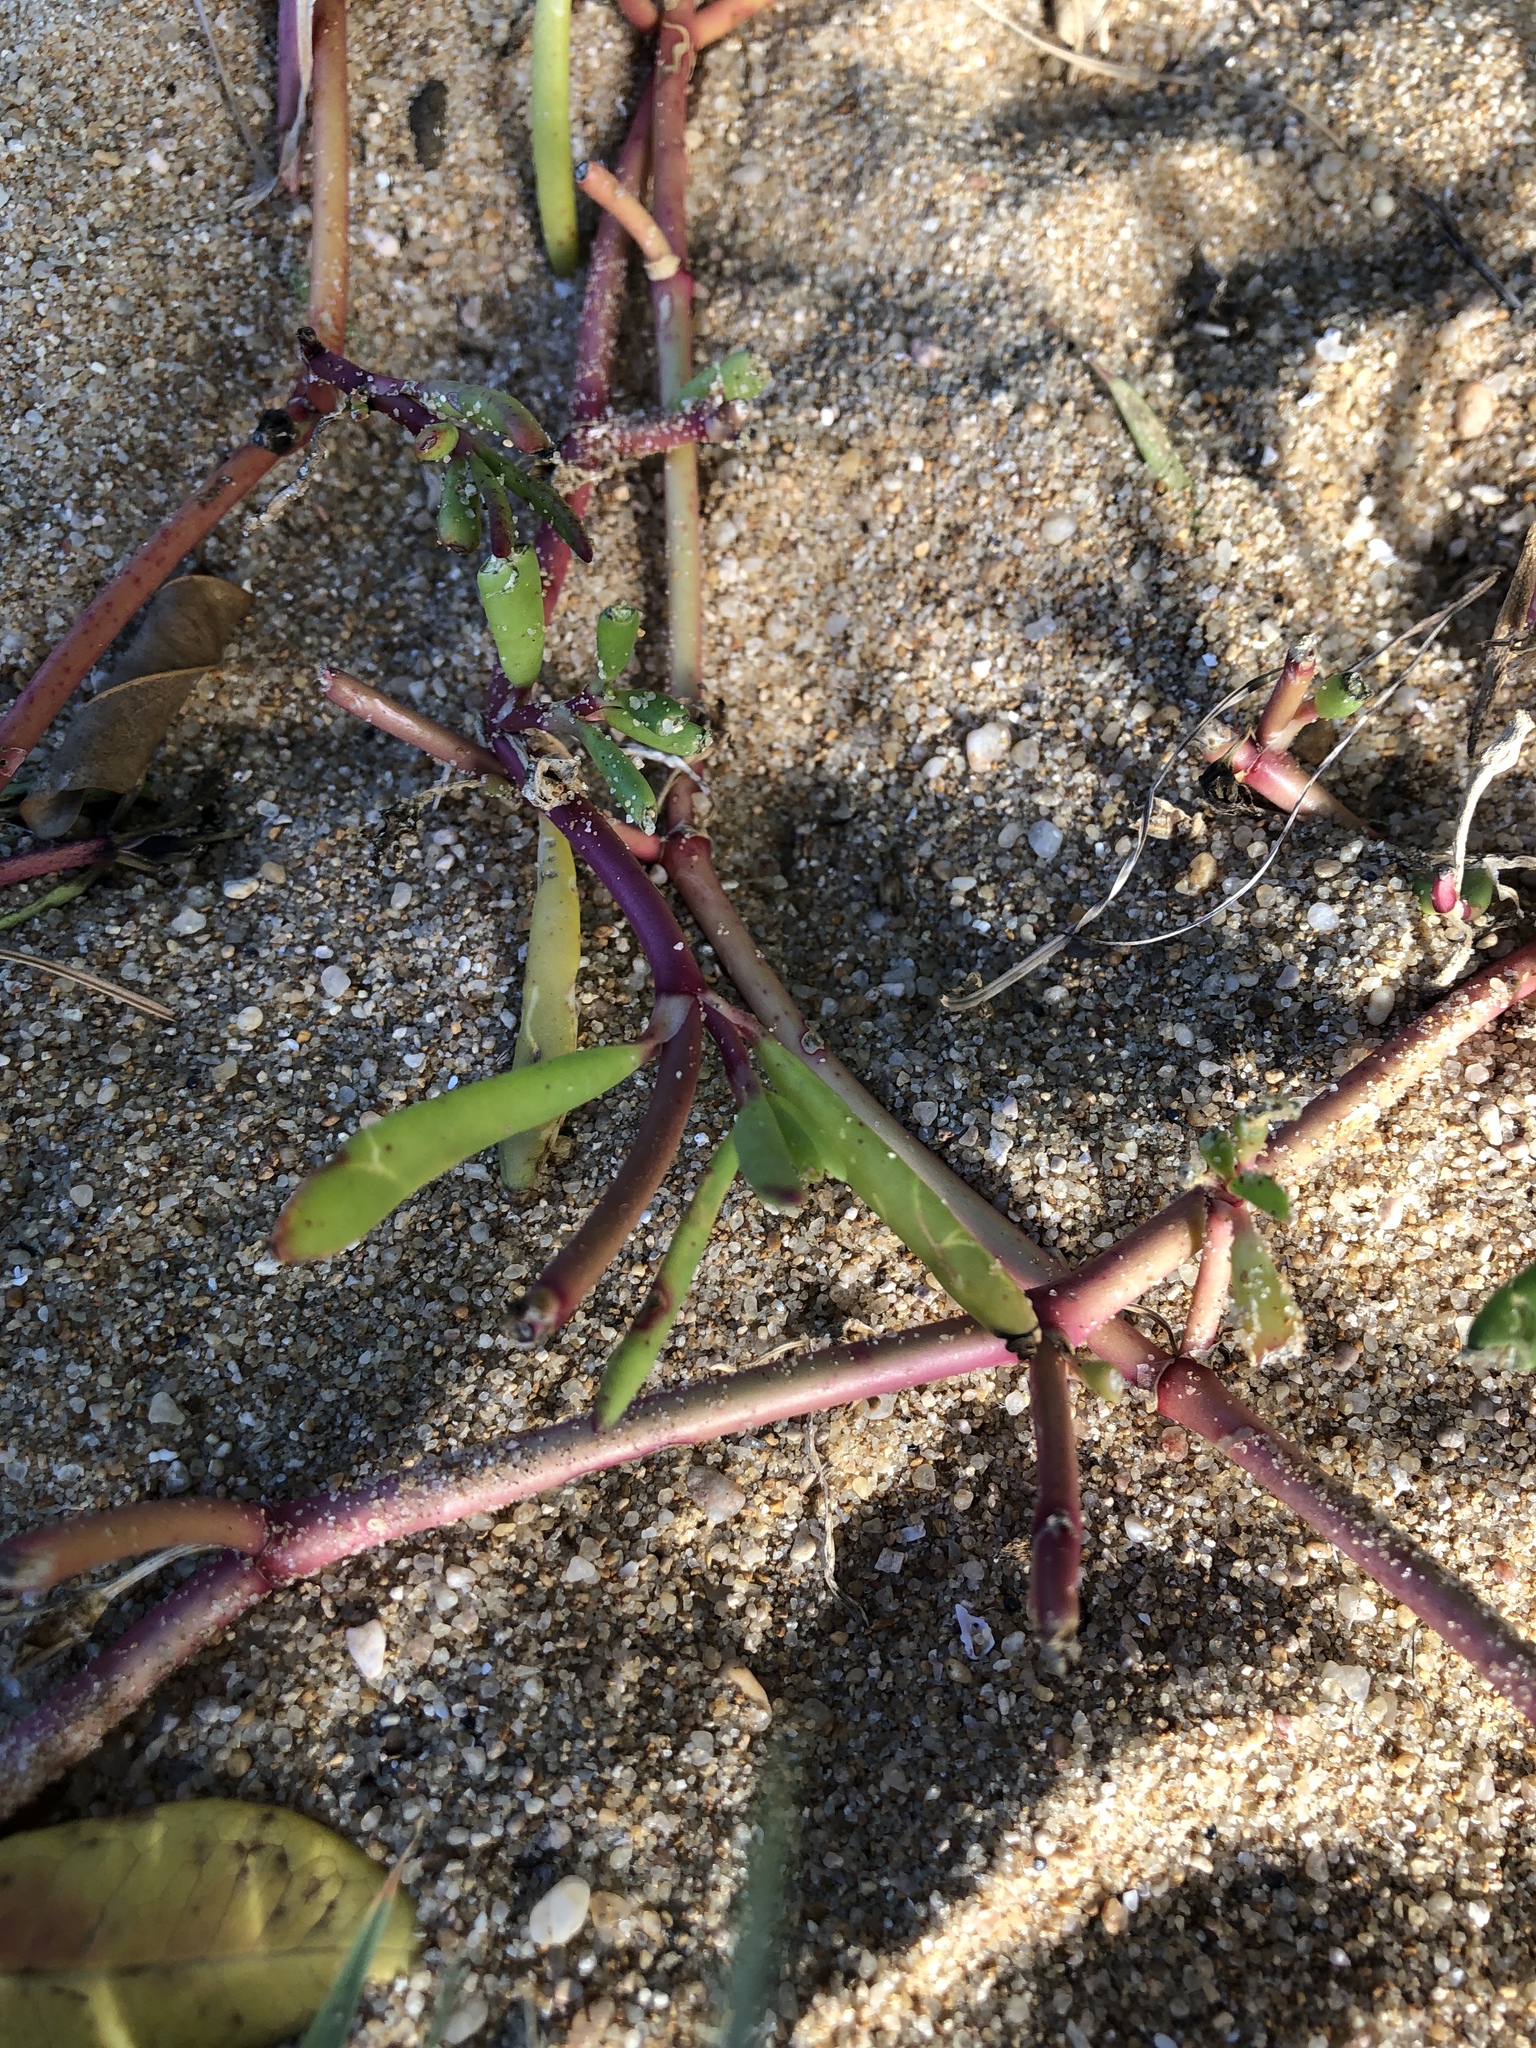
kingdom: Plantae
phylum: Tracheophyta
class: Magnoliopsida
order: Caryophyllales
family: Aizoaceae
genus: Sesuvium
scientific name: Sesuvium portulacastrum
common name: Sea-purslane
